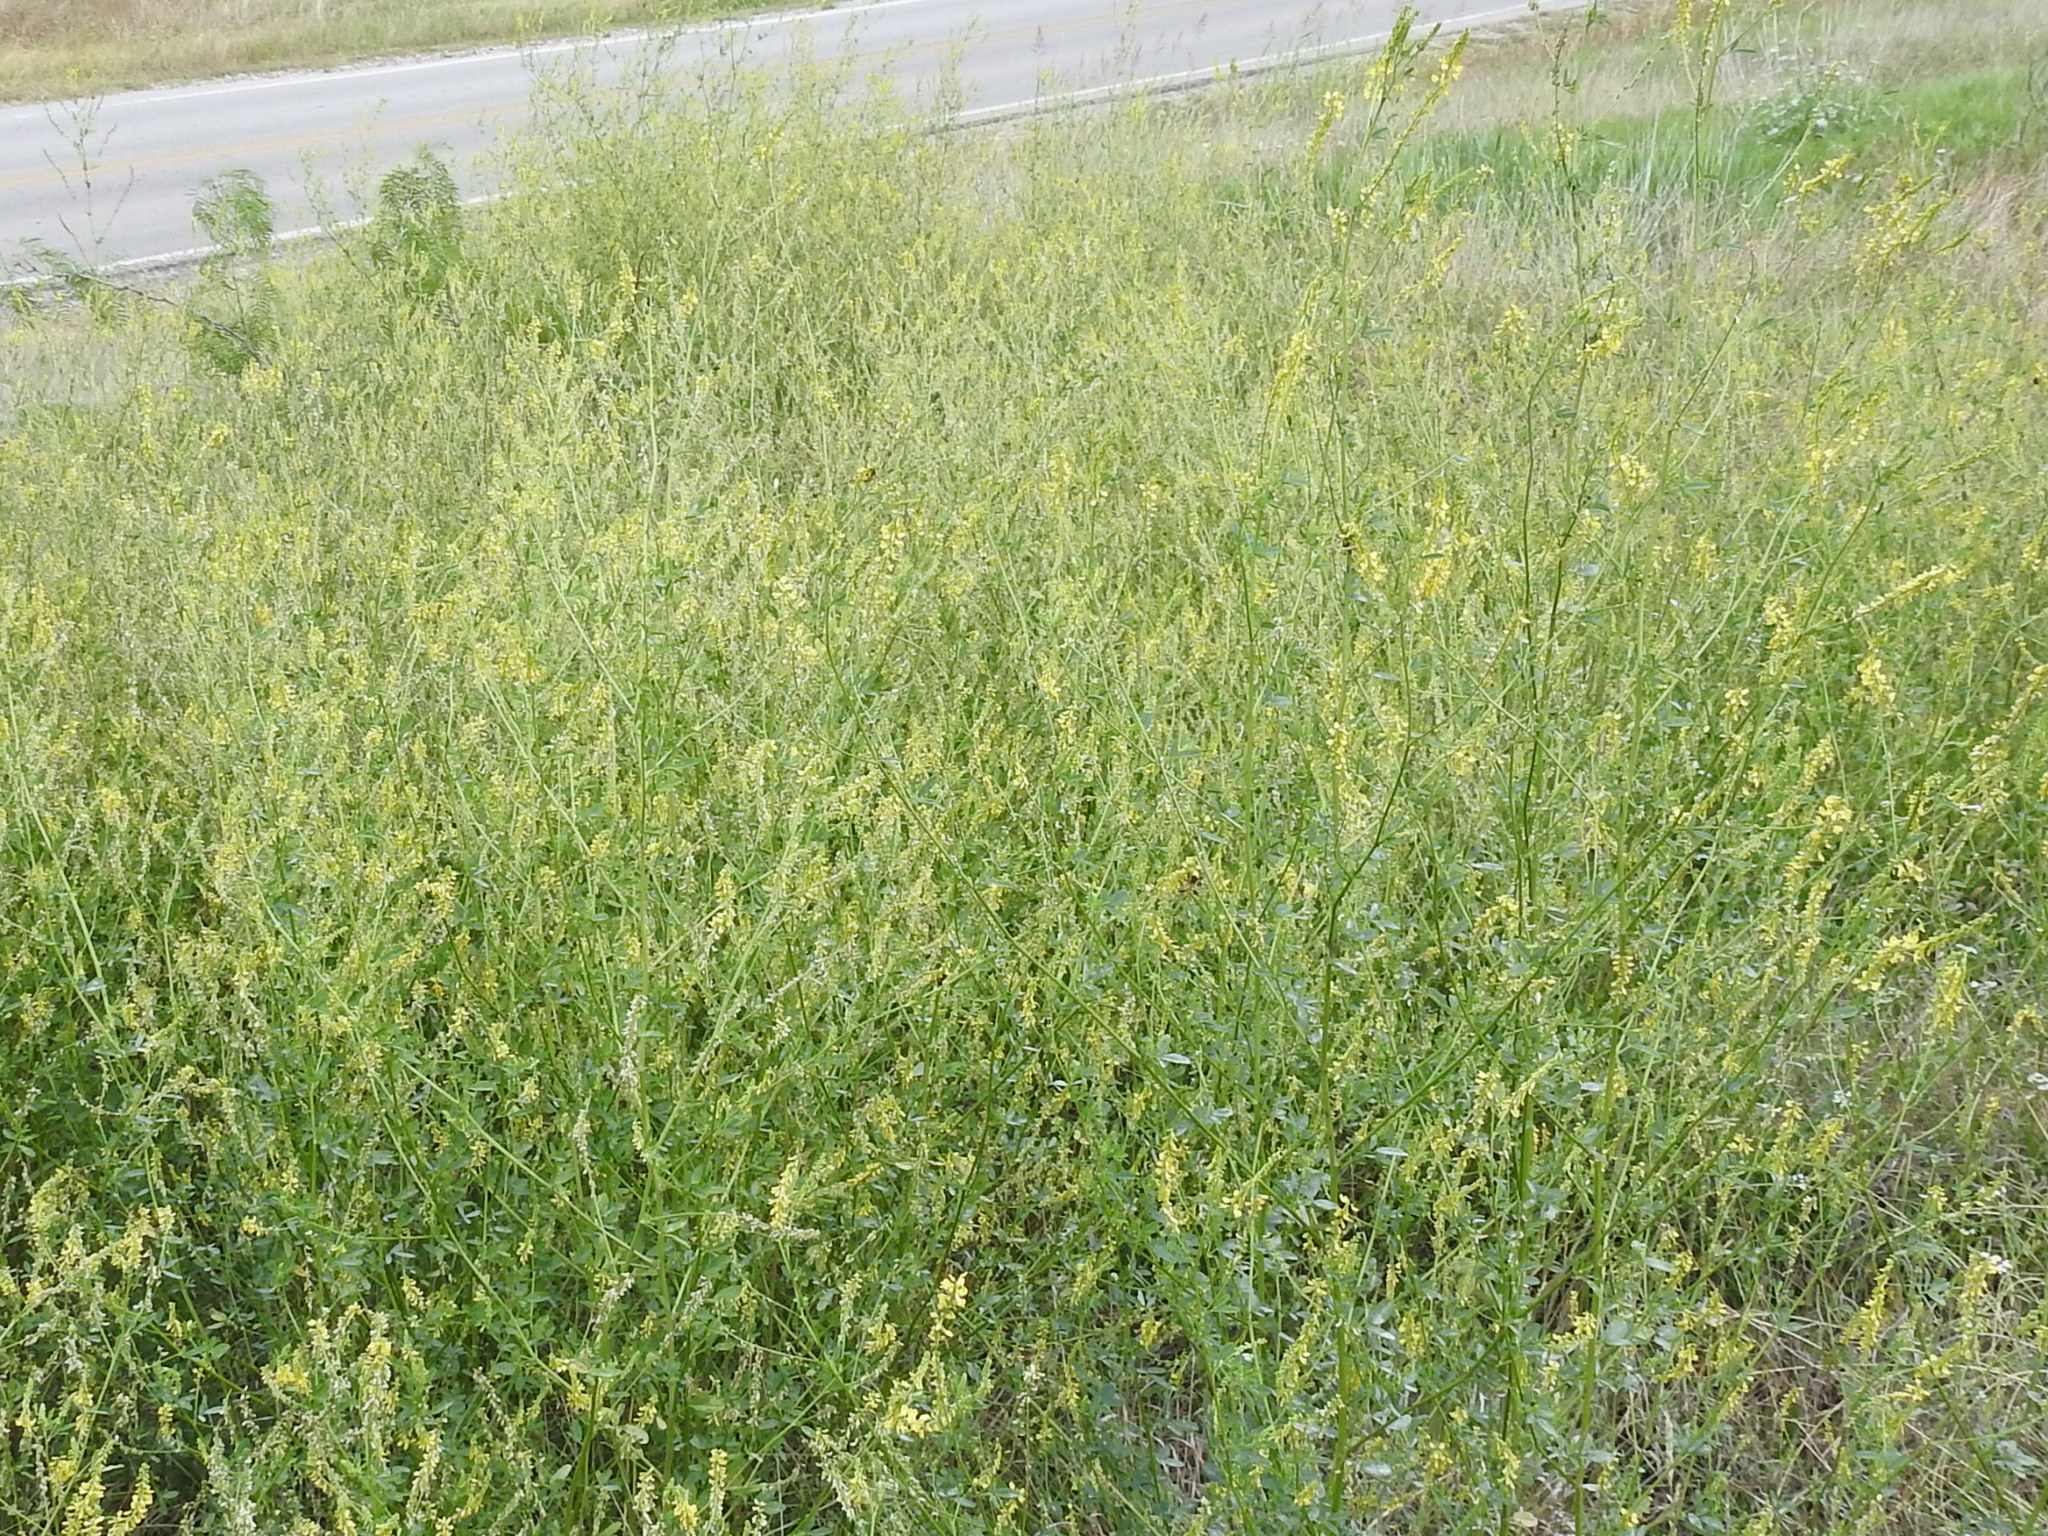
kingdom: Plantae
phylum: Tracheophyta
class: Magnoliopsida
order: Fabales
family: Fabaceae
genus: Melilotus
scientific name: Melilotus officinalis
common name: Sweetclover
